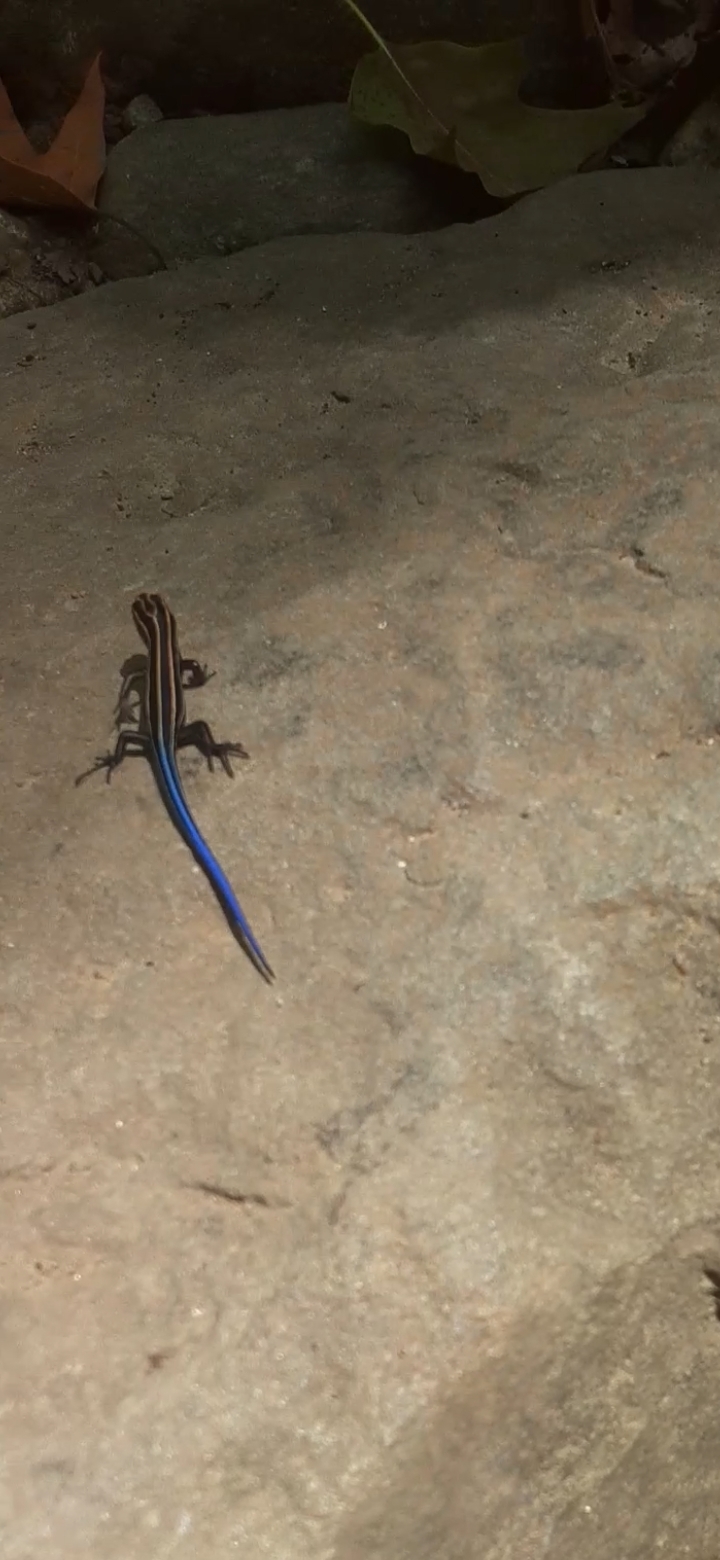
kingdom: Animalia
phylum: Chordata
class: Squamata
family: Scincidae
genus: Plestiodon
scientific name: Plestiodon fasciatus
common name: Five-lined skink
